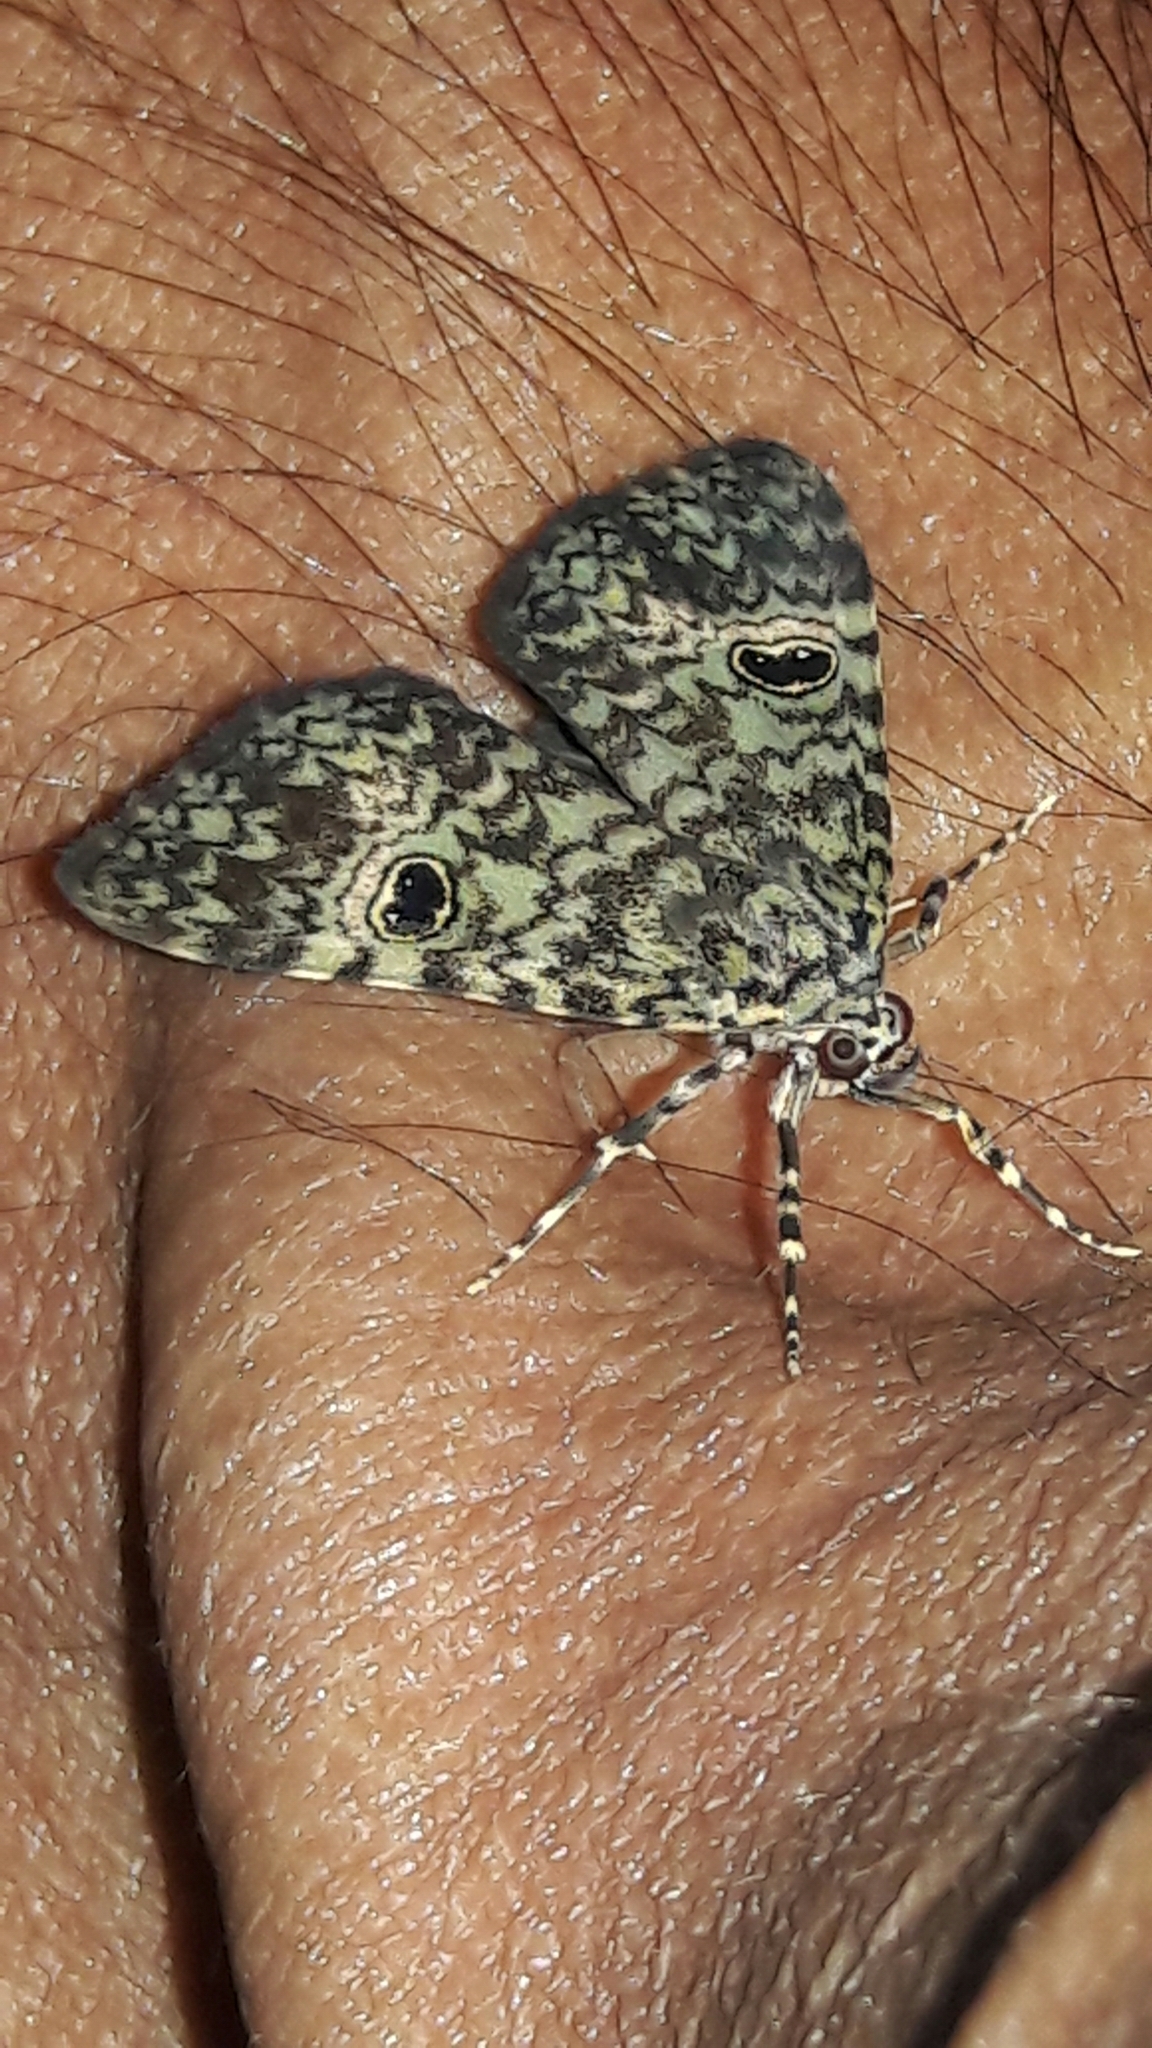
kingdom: Animalia
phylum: Arthropoda
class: Insecta
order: Lepidoptera
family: Erebidae
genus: Glenopteris
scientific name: Glenopteris oculifera
